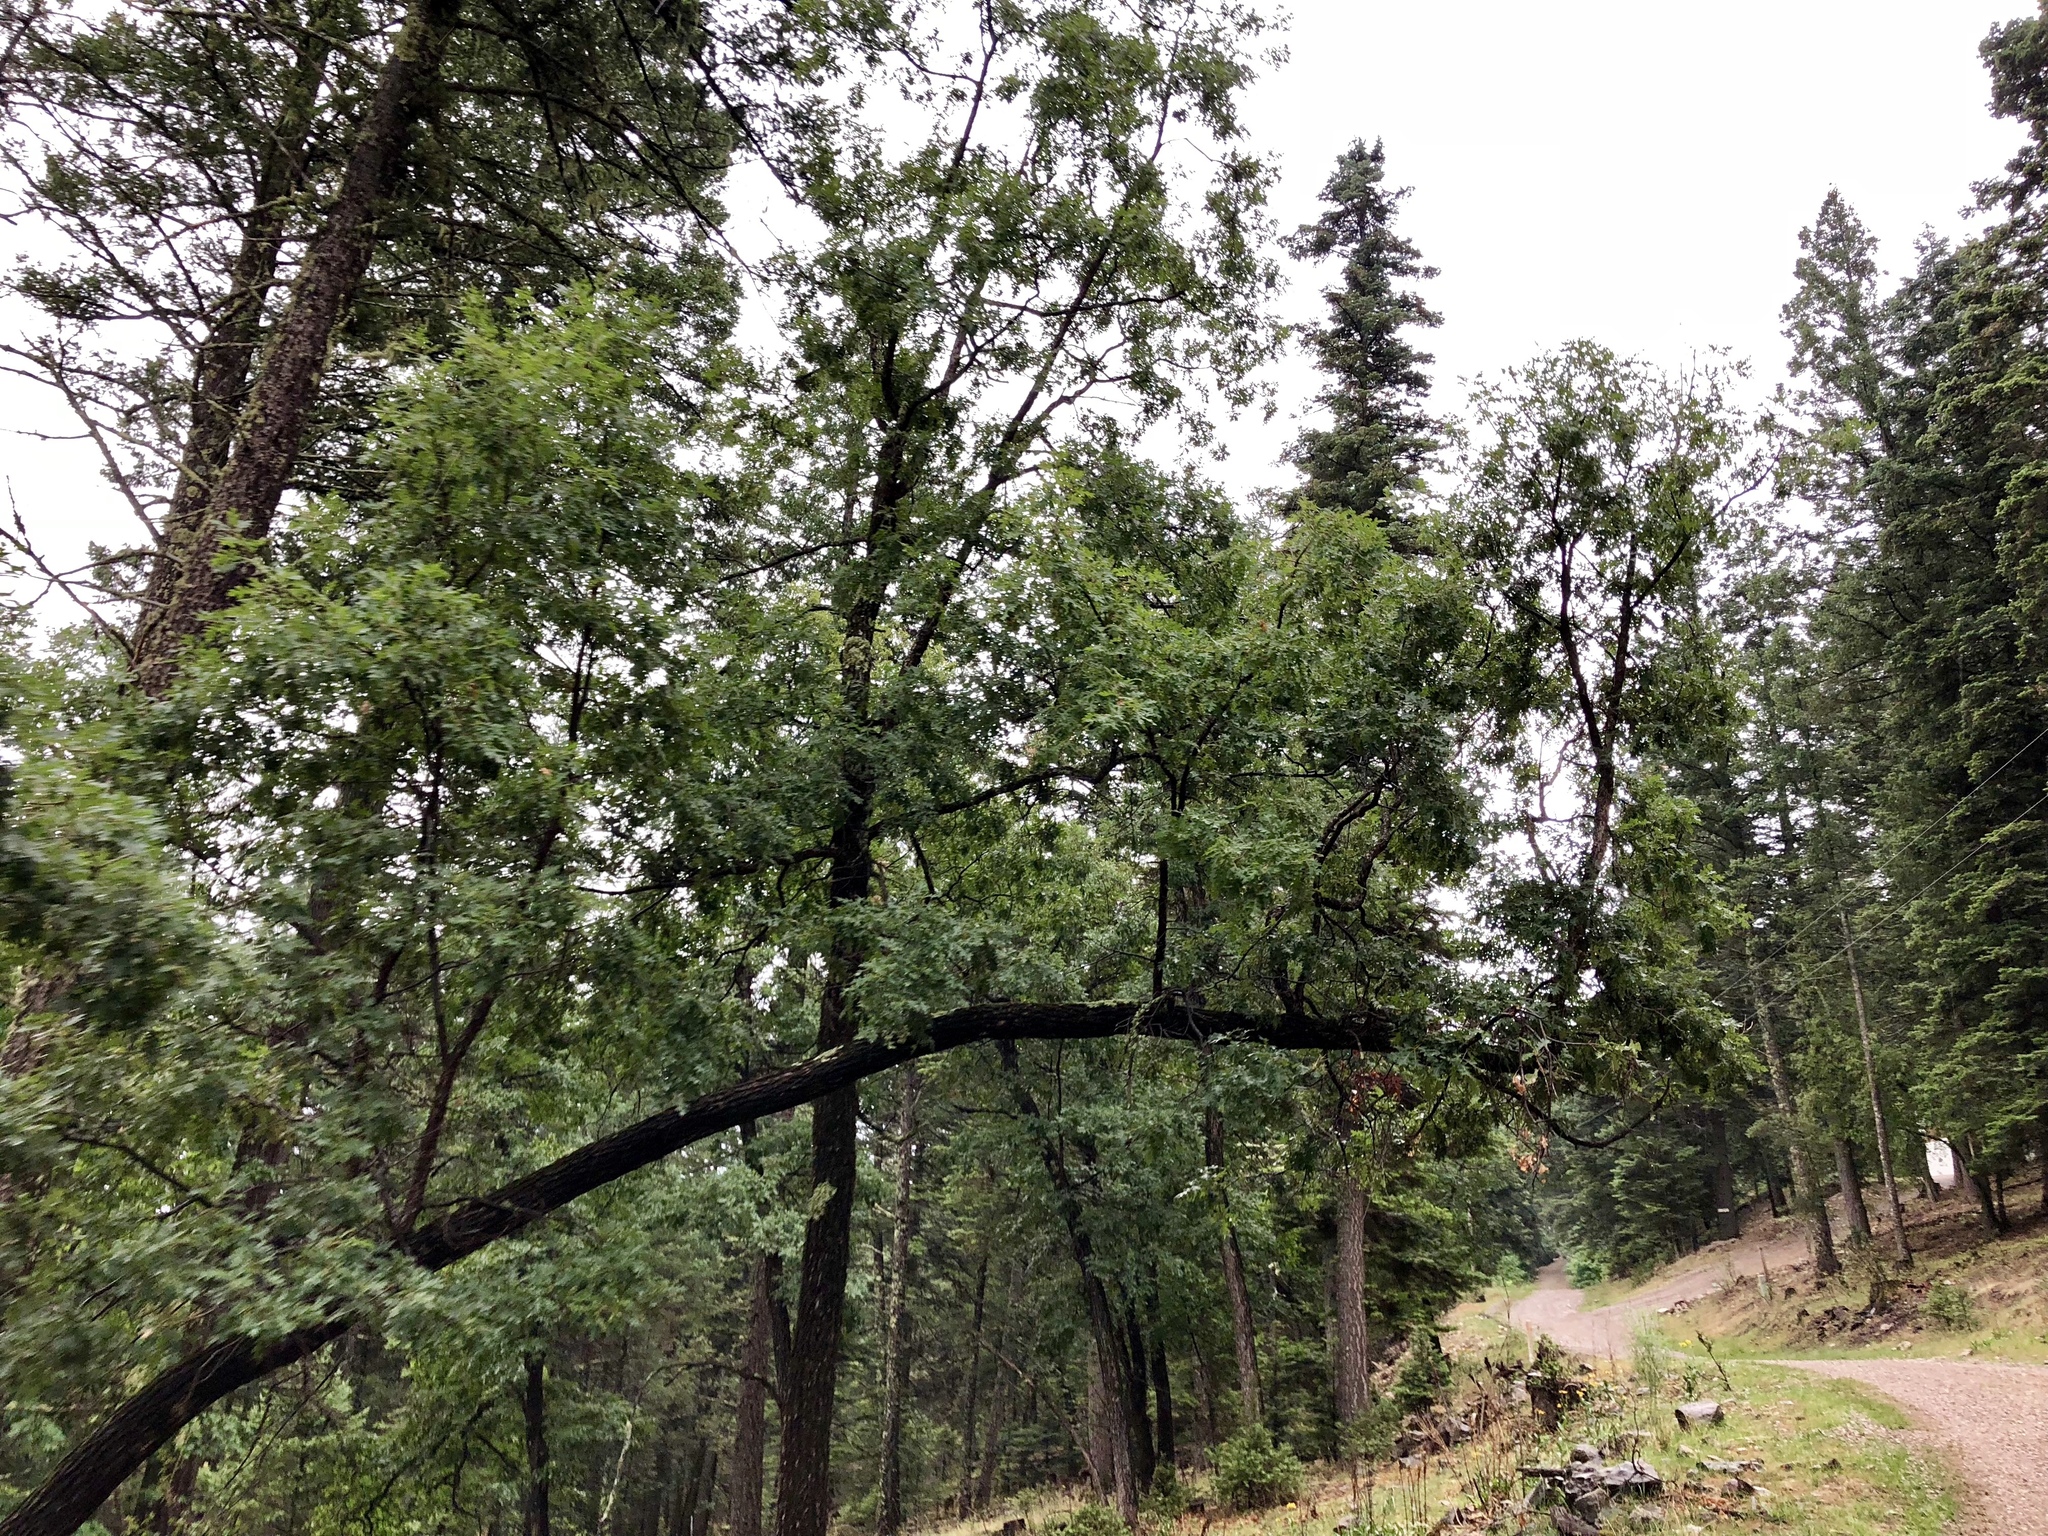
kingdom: Plantae
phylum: Tracheophyta
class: Magnoliopsida
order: Fagales
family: Fagaceae
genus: Quercus
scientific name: Quercus gambelii
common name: Gambel oak
